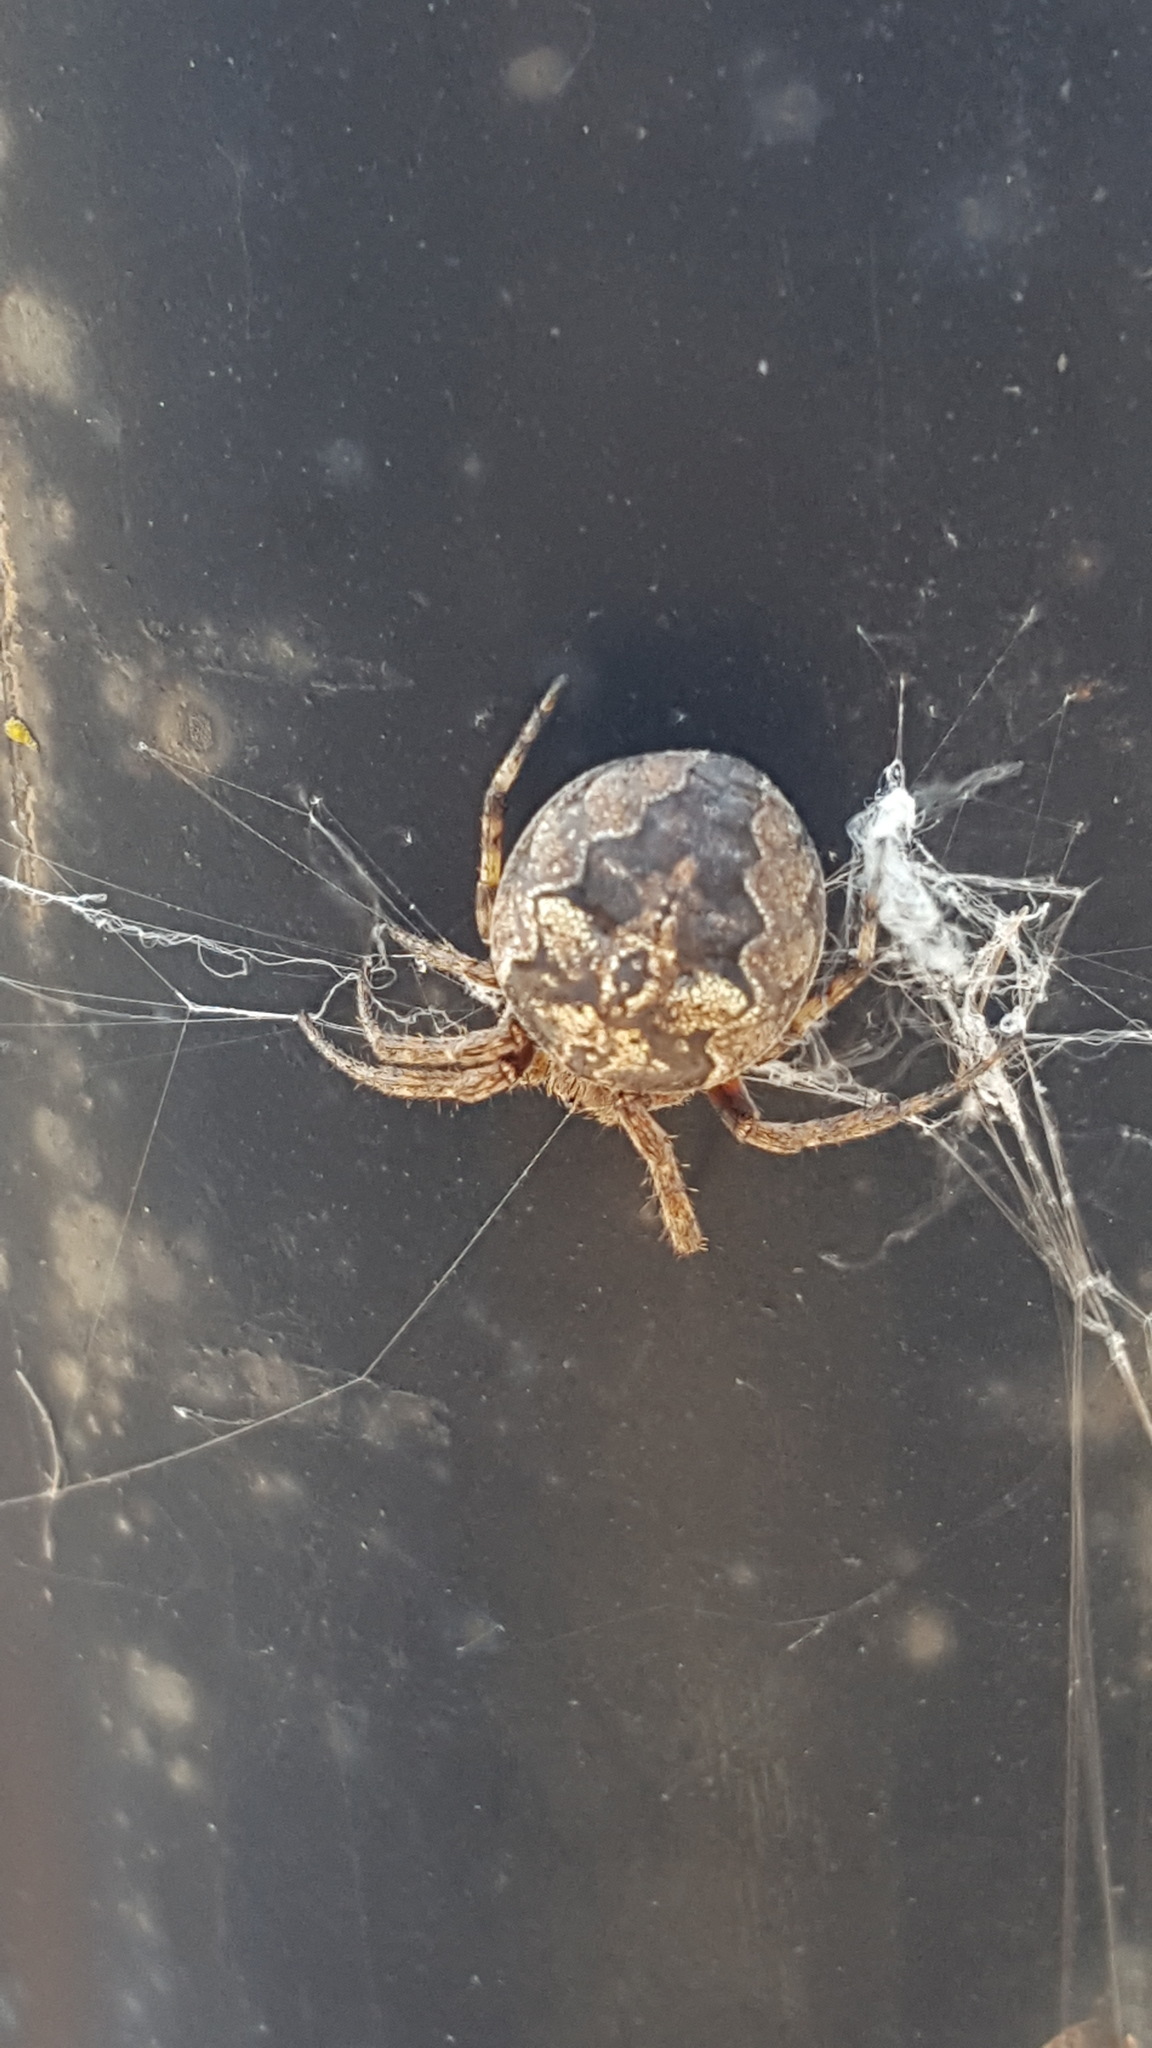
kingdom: Animalia
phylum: Arthropoda
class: Arachnida
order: Araneae
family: Araneidae
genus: Larinioides
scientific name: Larinioides sclopetarius
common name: Bridge orbweaver
